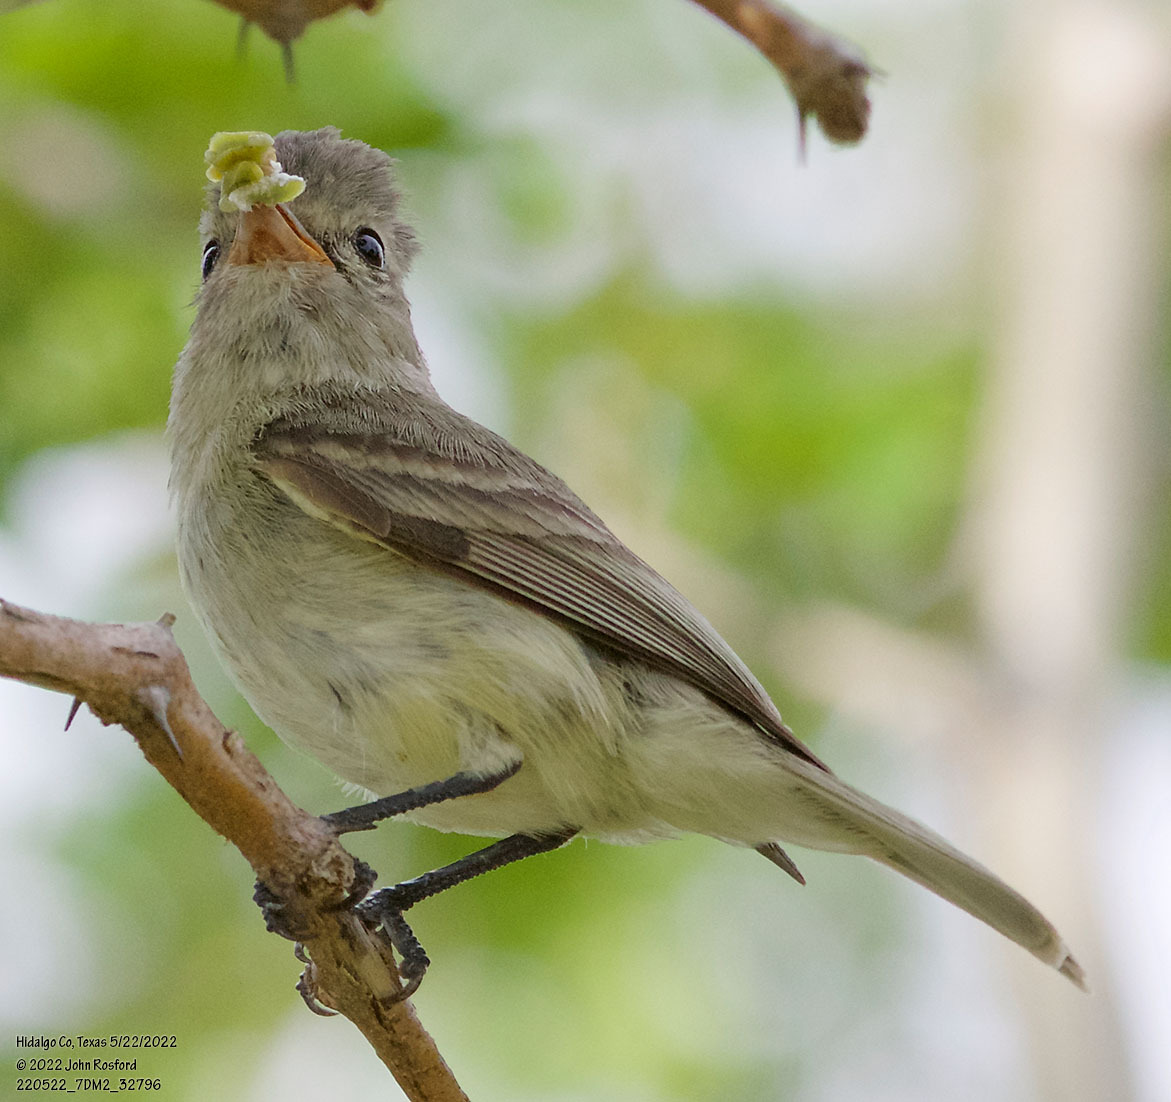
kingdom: Animalia
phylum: Chordata
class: Aves
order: Passeriformes
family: Tyrannidae
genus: Camptostoma
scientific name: Camptostoma imberbe
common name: Northern beardless-tyrannulet
